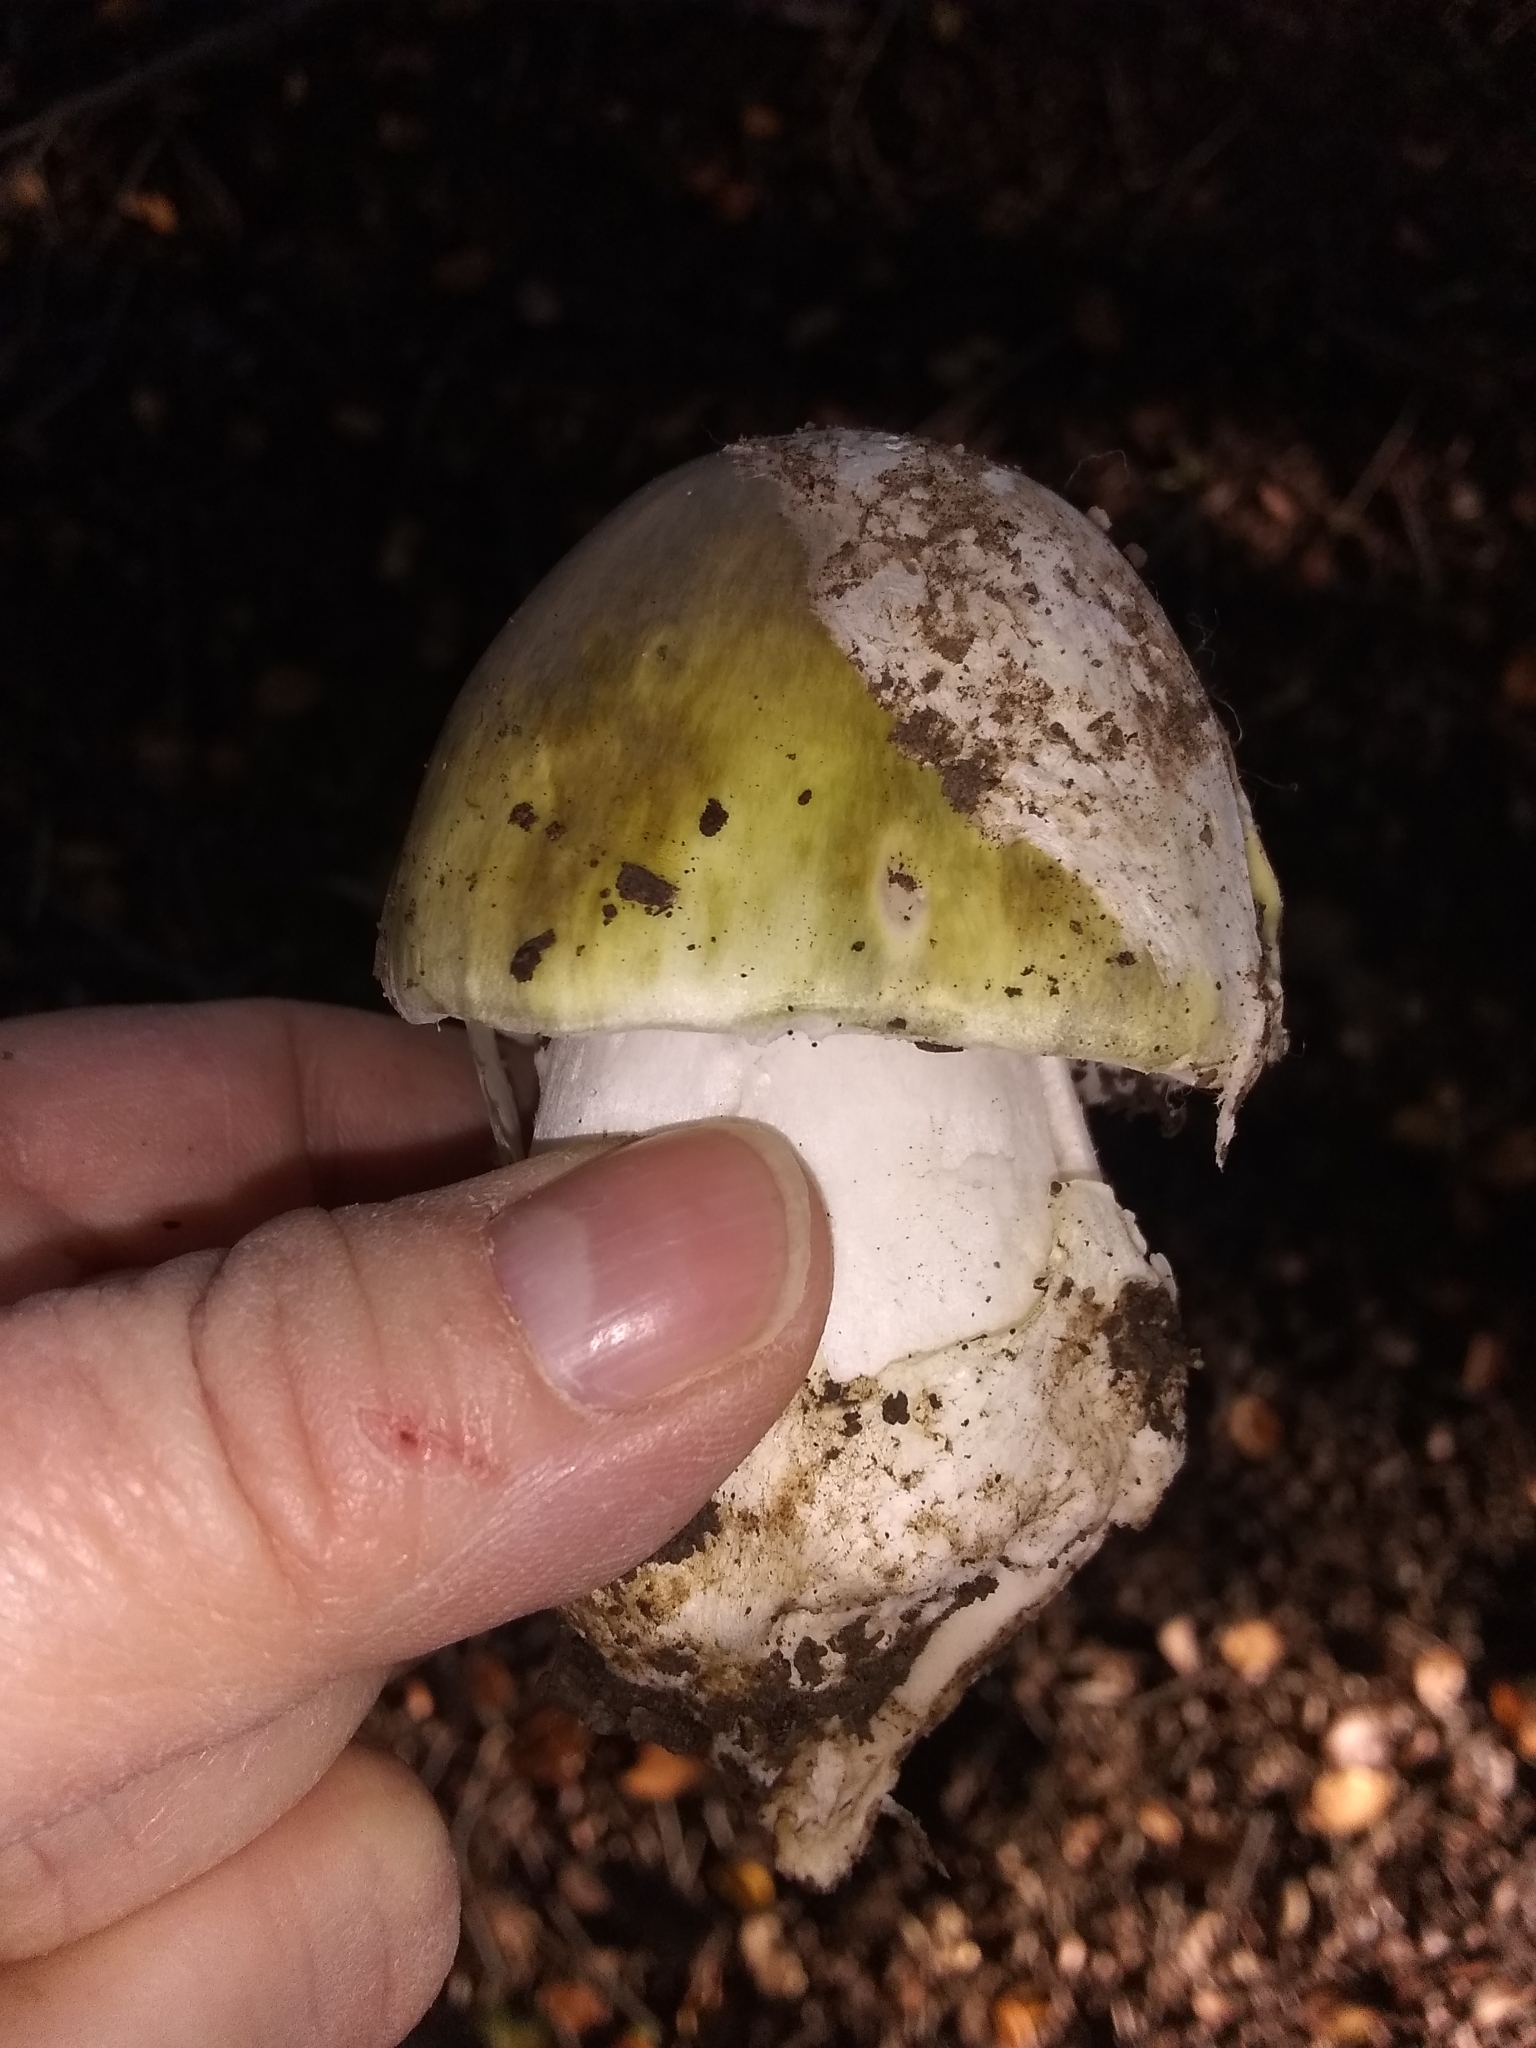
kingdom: Fungi
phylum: Basidiomycota
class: Agaricomycetes
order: Agaricales
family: Amanitaceae
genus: Amanita
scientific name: Amanita phalloides
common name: Death cap
